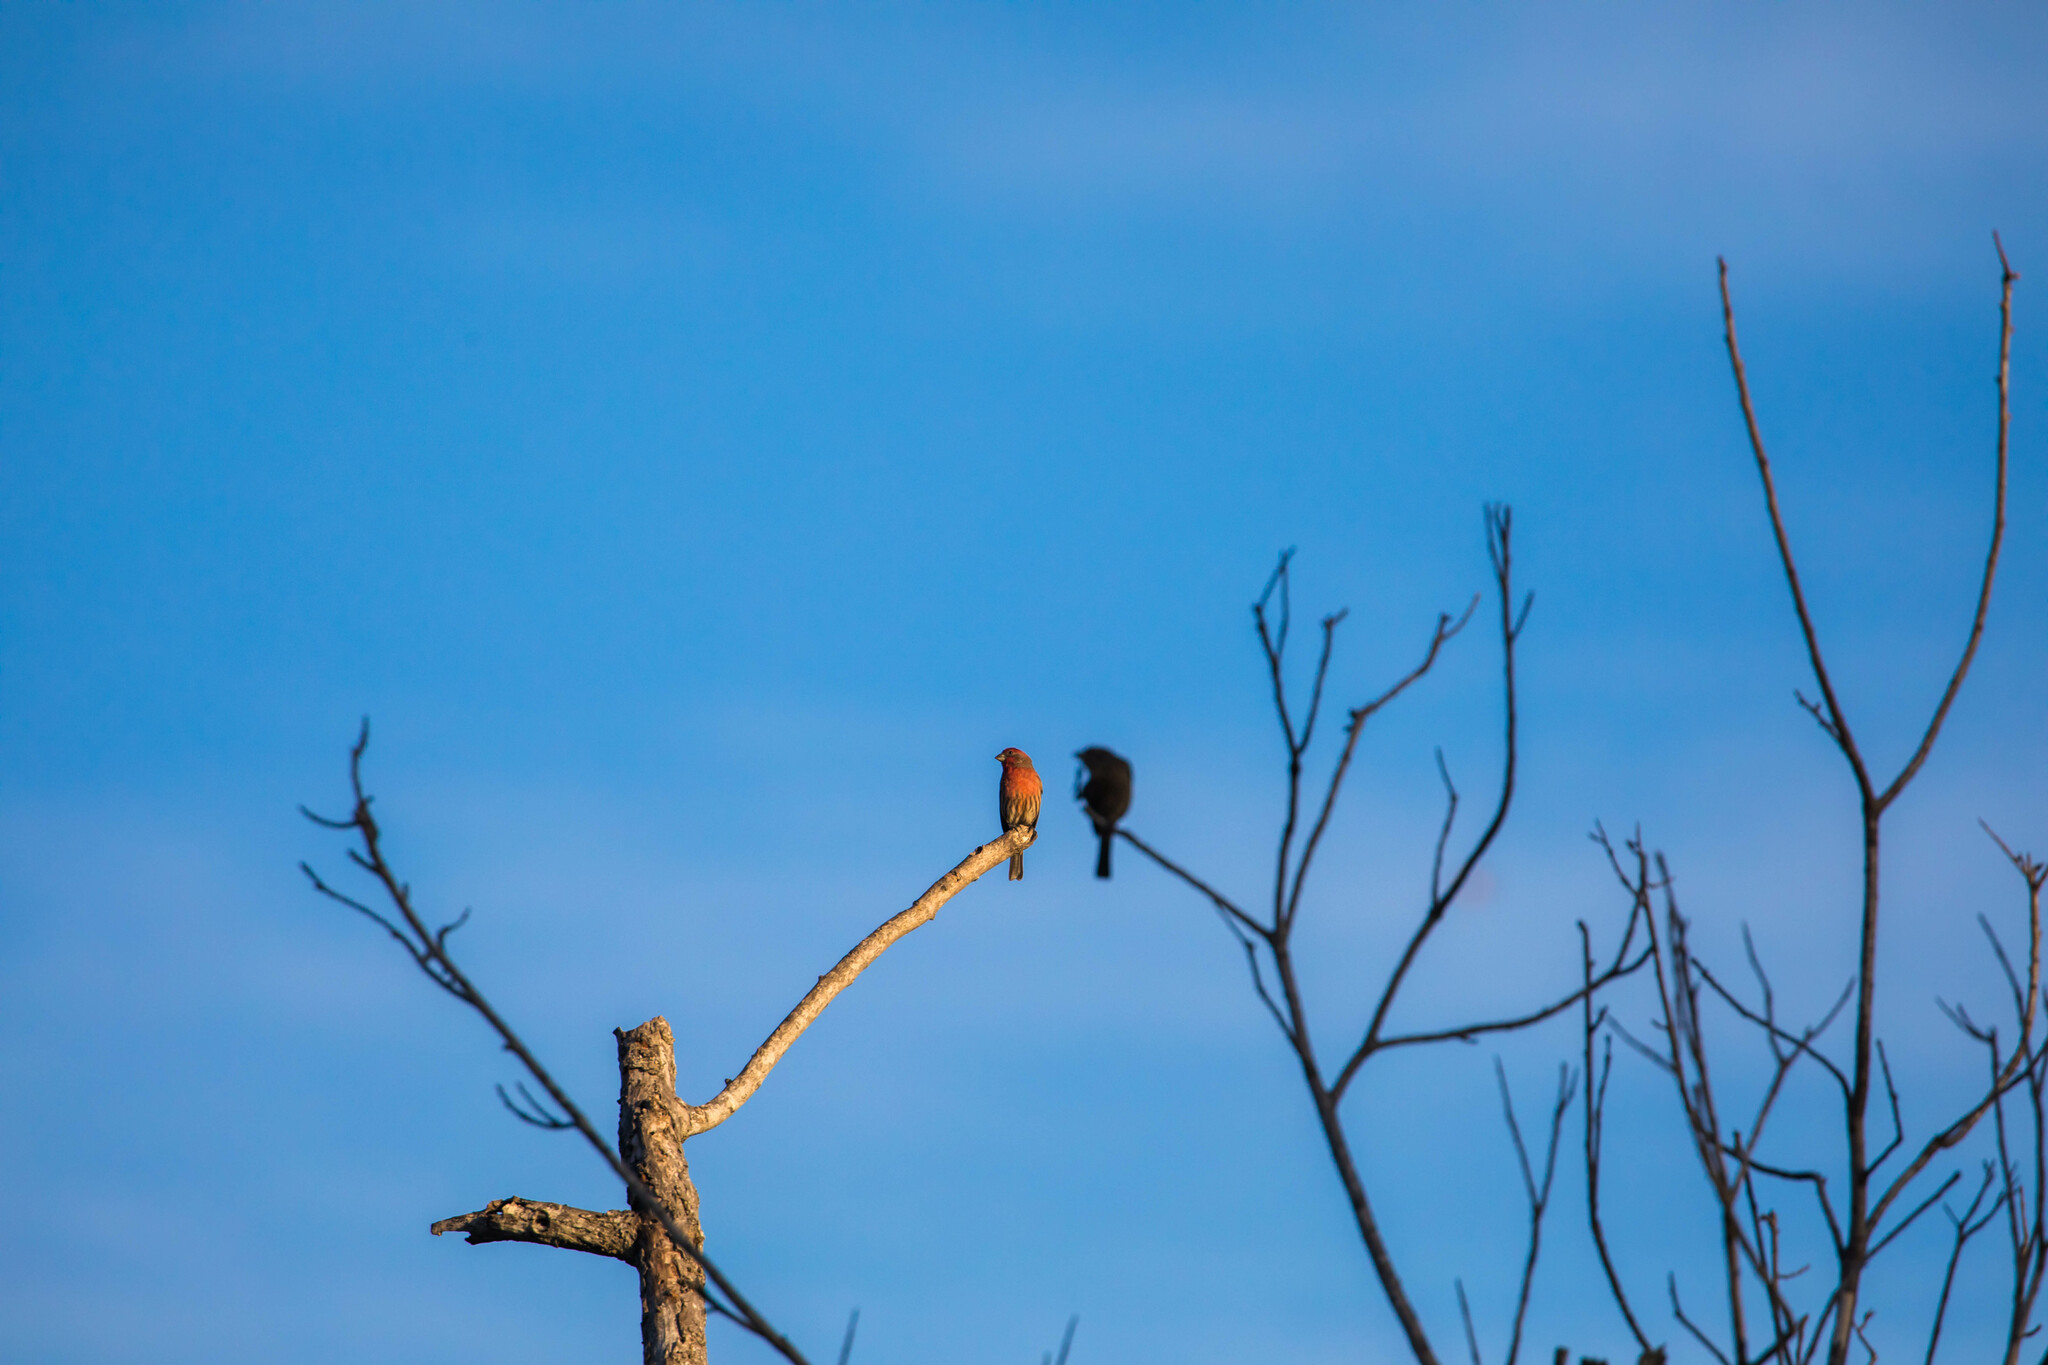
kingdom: Animalia
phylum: Chordata
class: Aves
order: Passeriformes
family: Fringillidae
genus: Haemorhous
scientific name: Haemorhous mexicanus
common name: House finch
